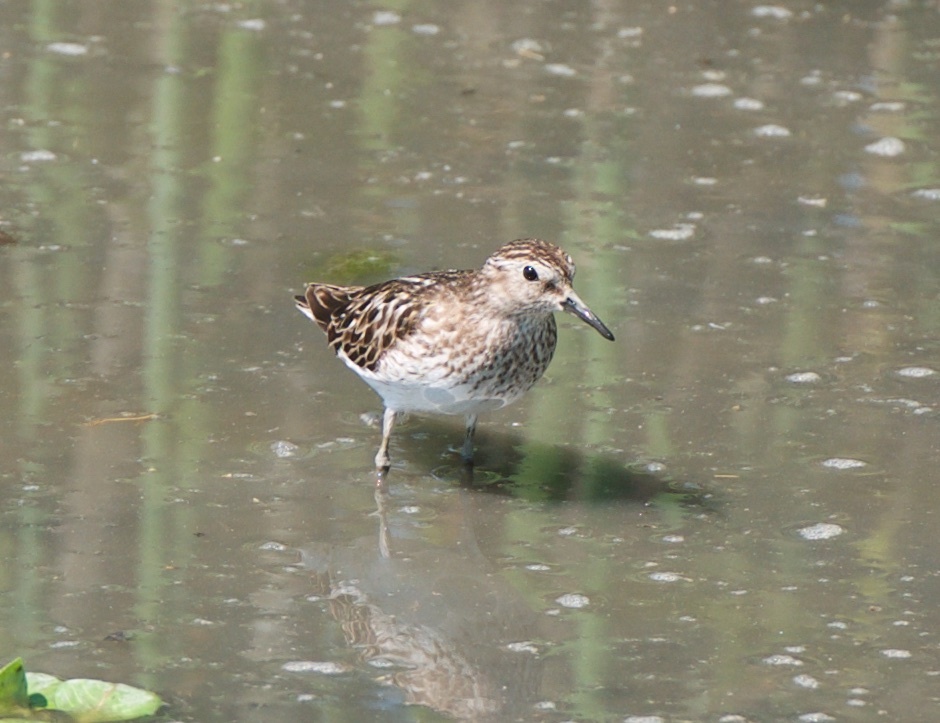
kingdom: Animalia
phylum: Chordata
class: Aves
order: Charadriiformes
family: Scolopacidae
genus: Calidris
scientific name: Calidris minutilla
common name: Least sandpiper
